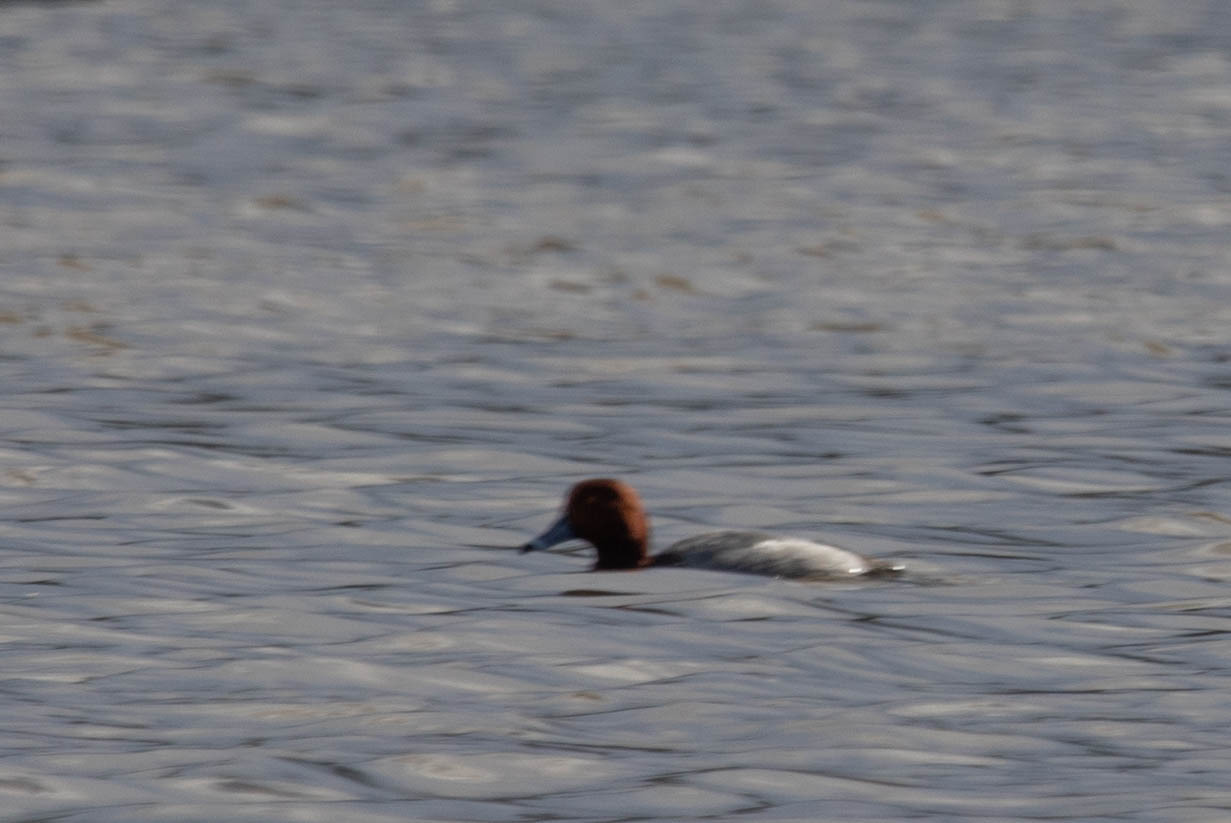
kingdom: Animalia
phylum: Chordata
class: Aves
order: Anseriformes
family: Anatidae
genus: Aythya
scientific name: Aythya americana
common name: Redhead
